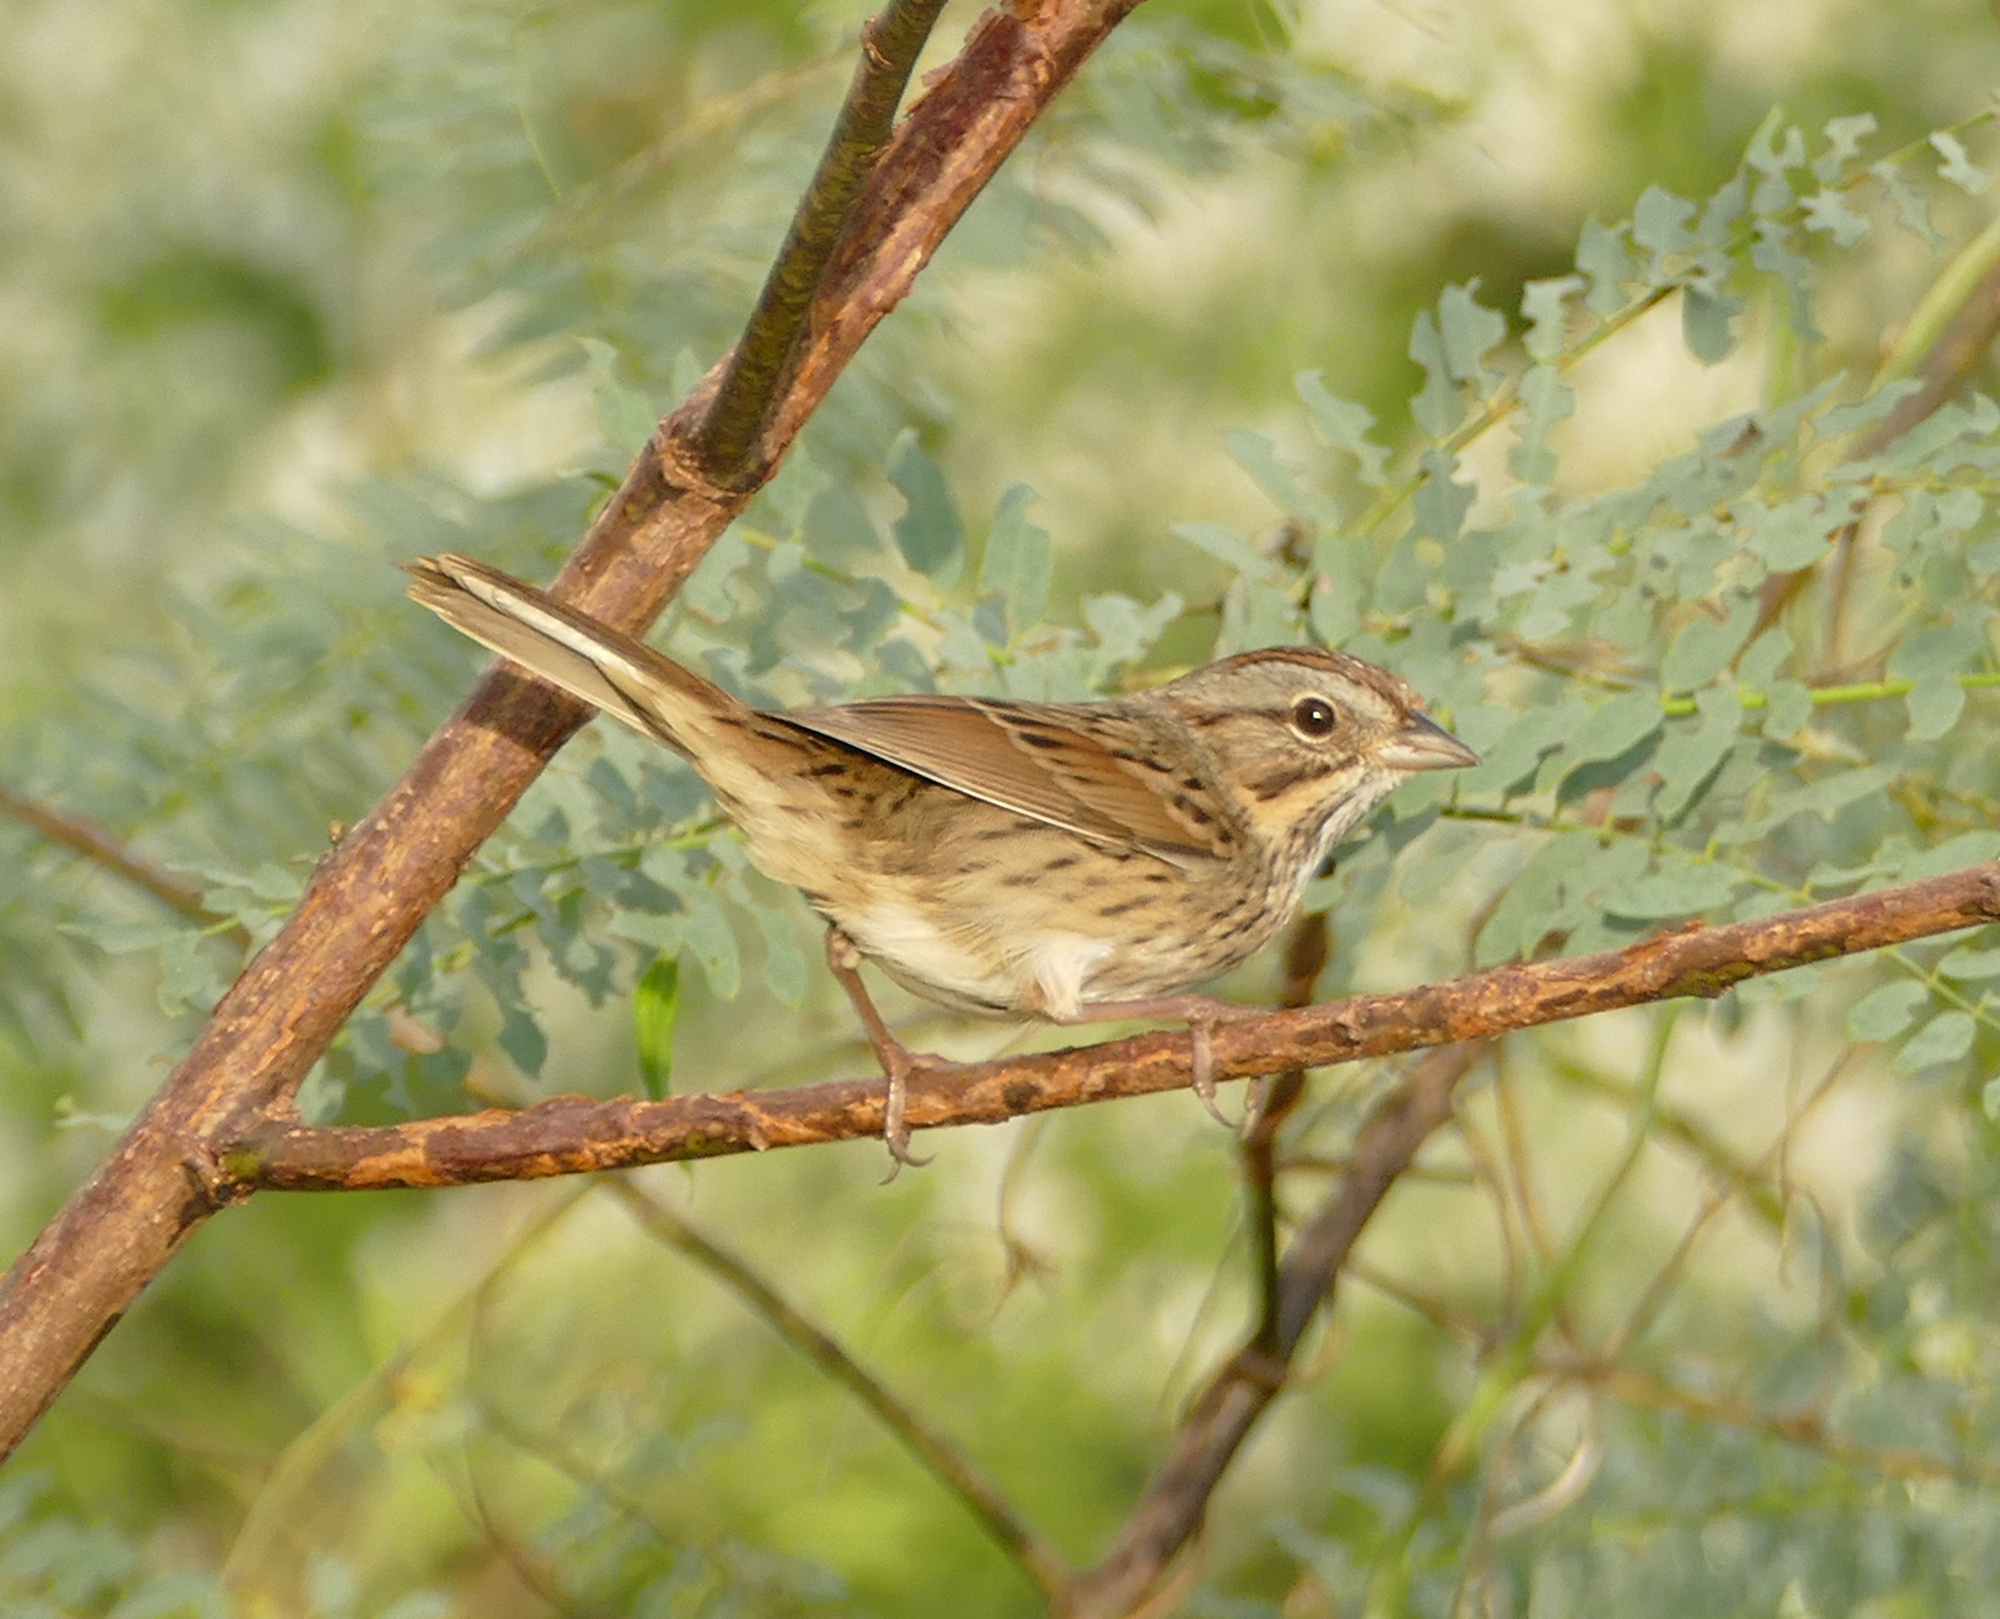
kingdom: Animalia
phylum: Chordata
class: Aves
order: Passeriformes
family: Passerellidae
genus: Melospiza
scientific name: Melospiza lincolnii
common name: Lincoln's sparrow
